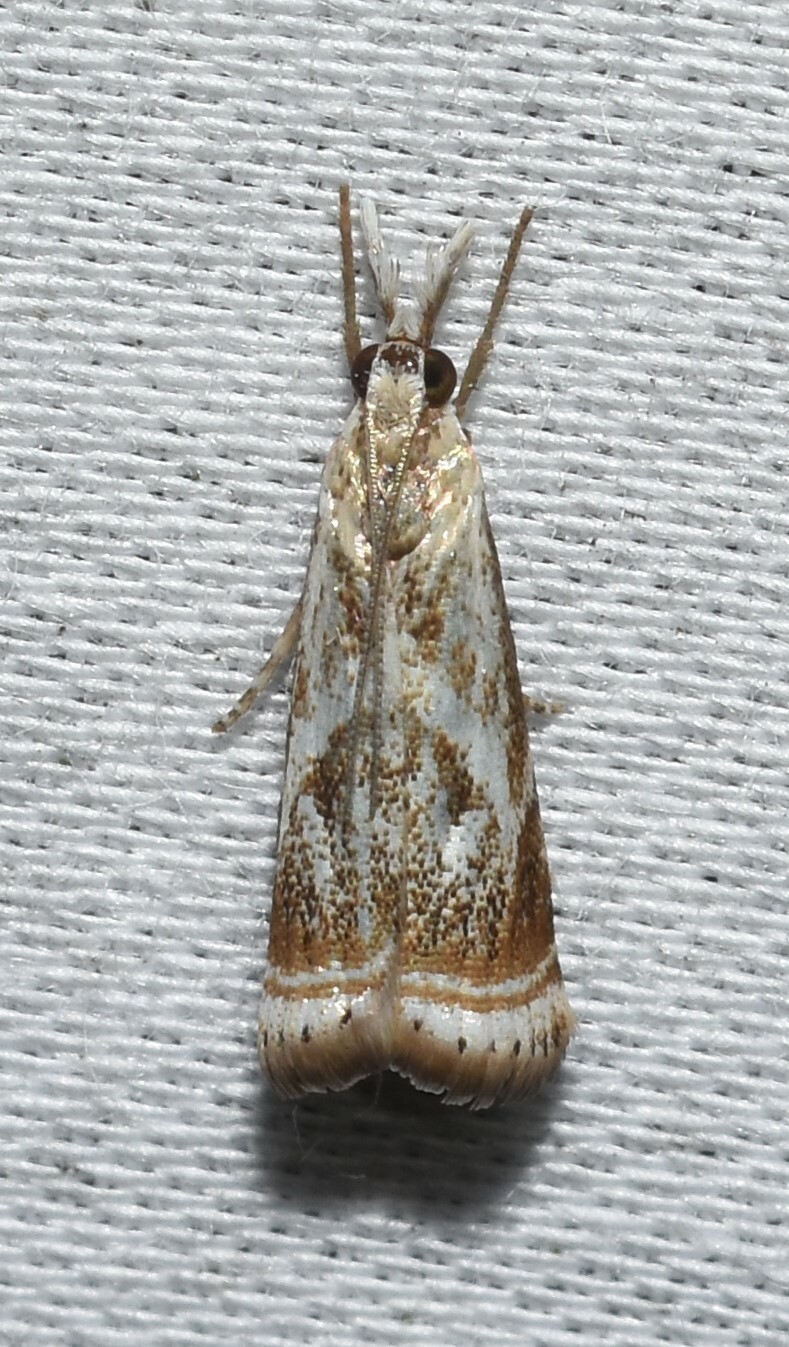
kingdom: Animalia
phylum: Arthropoda
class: Insecta
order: Lepidoptera
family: Crambidae
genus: Microcrambus
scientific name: Microcrambus elegans
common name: Elegant grass-veneer
